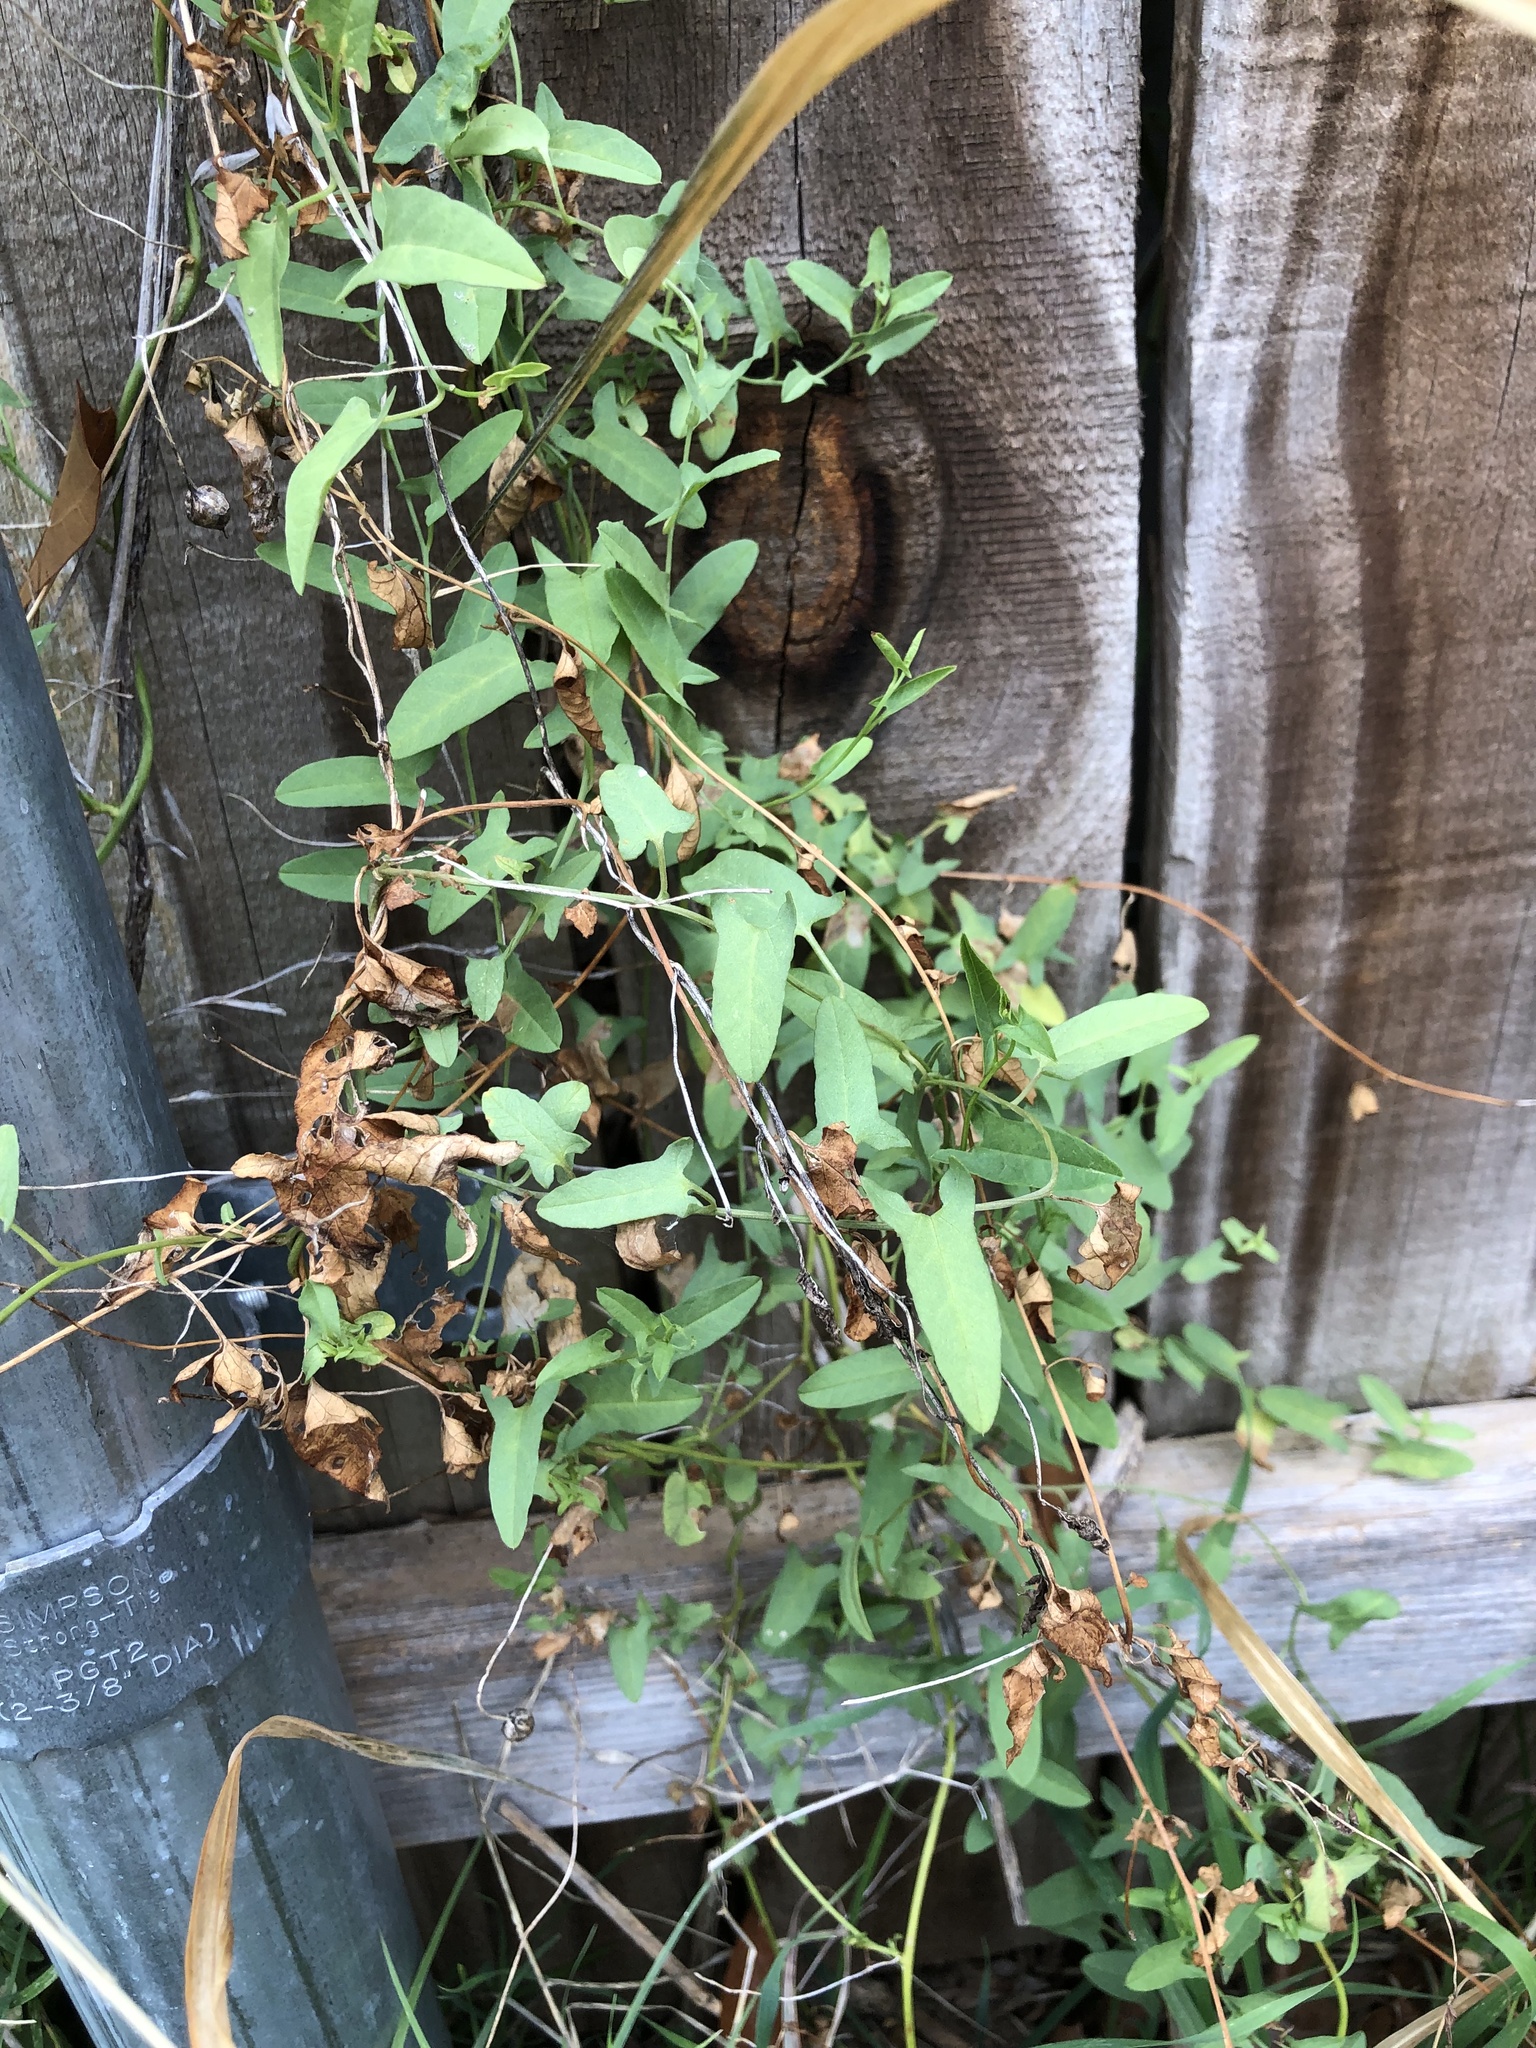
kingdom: Plantae
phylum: Tracheophyta
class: Magnoliopsida
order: Solanales
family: Convolvulaceae
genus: Convolvulus
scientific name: Convolvulus arvensis
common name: Field bindweed
